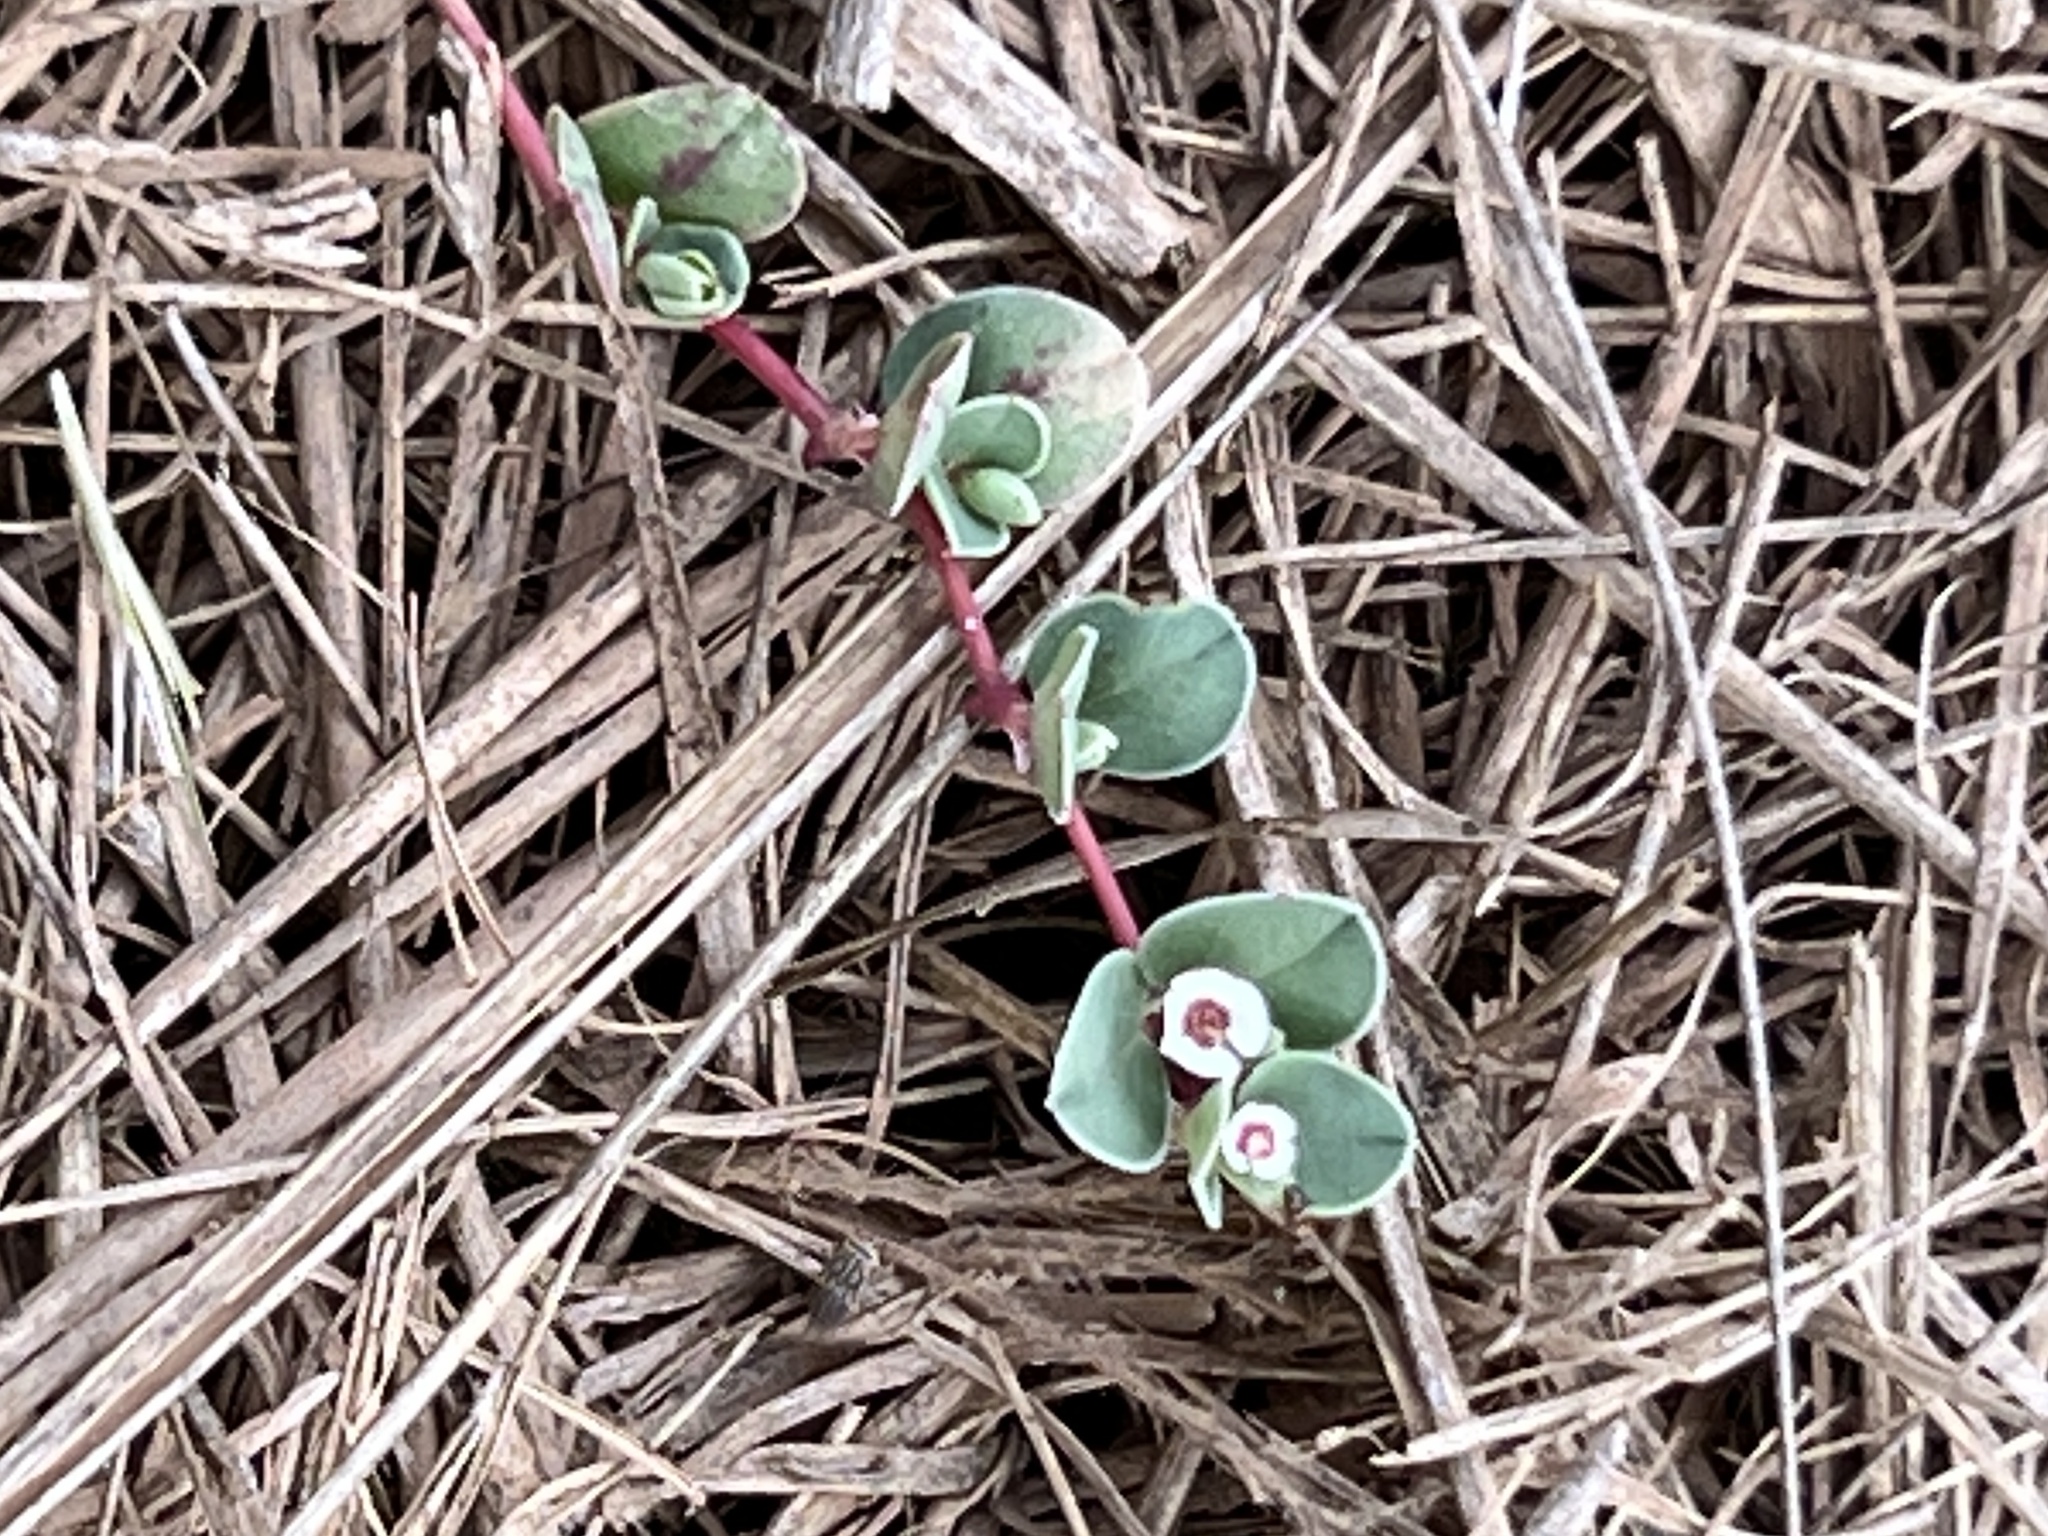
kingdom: Plantae
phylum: Tracheophyta
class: Magnoliopsida
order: Malpighiales
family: Euphorbiaceae
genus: Euphorbia
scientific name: Euphorbia albomarginata
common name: Whitemargin sandmat
